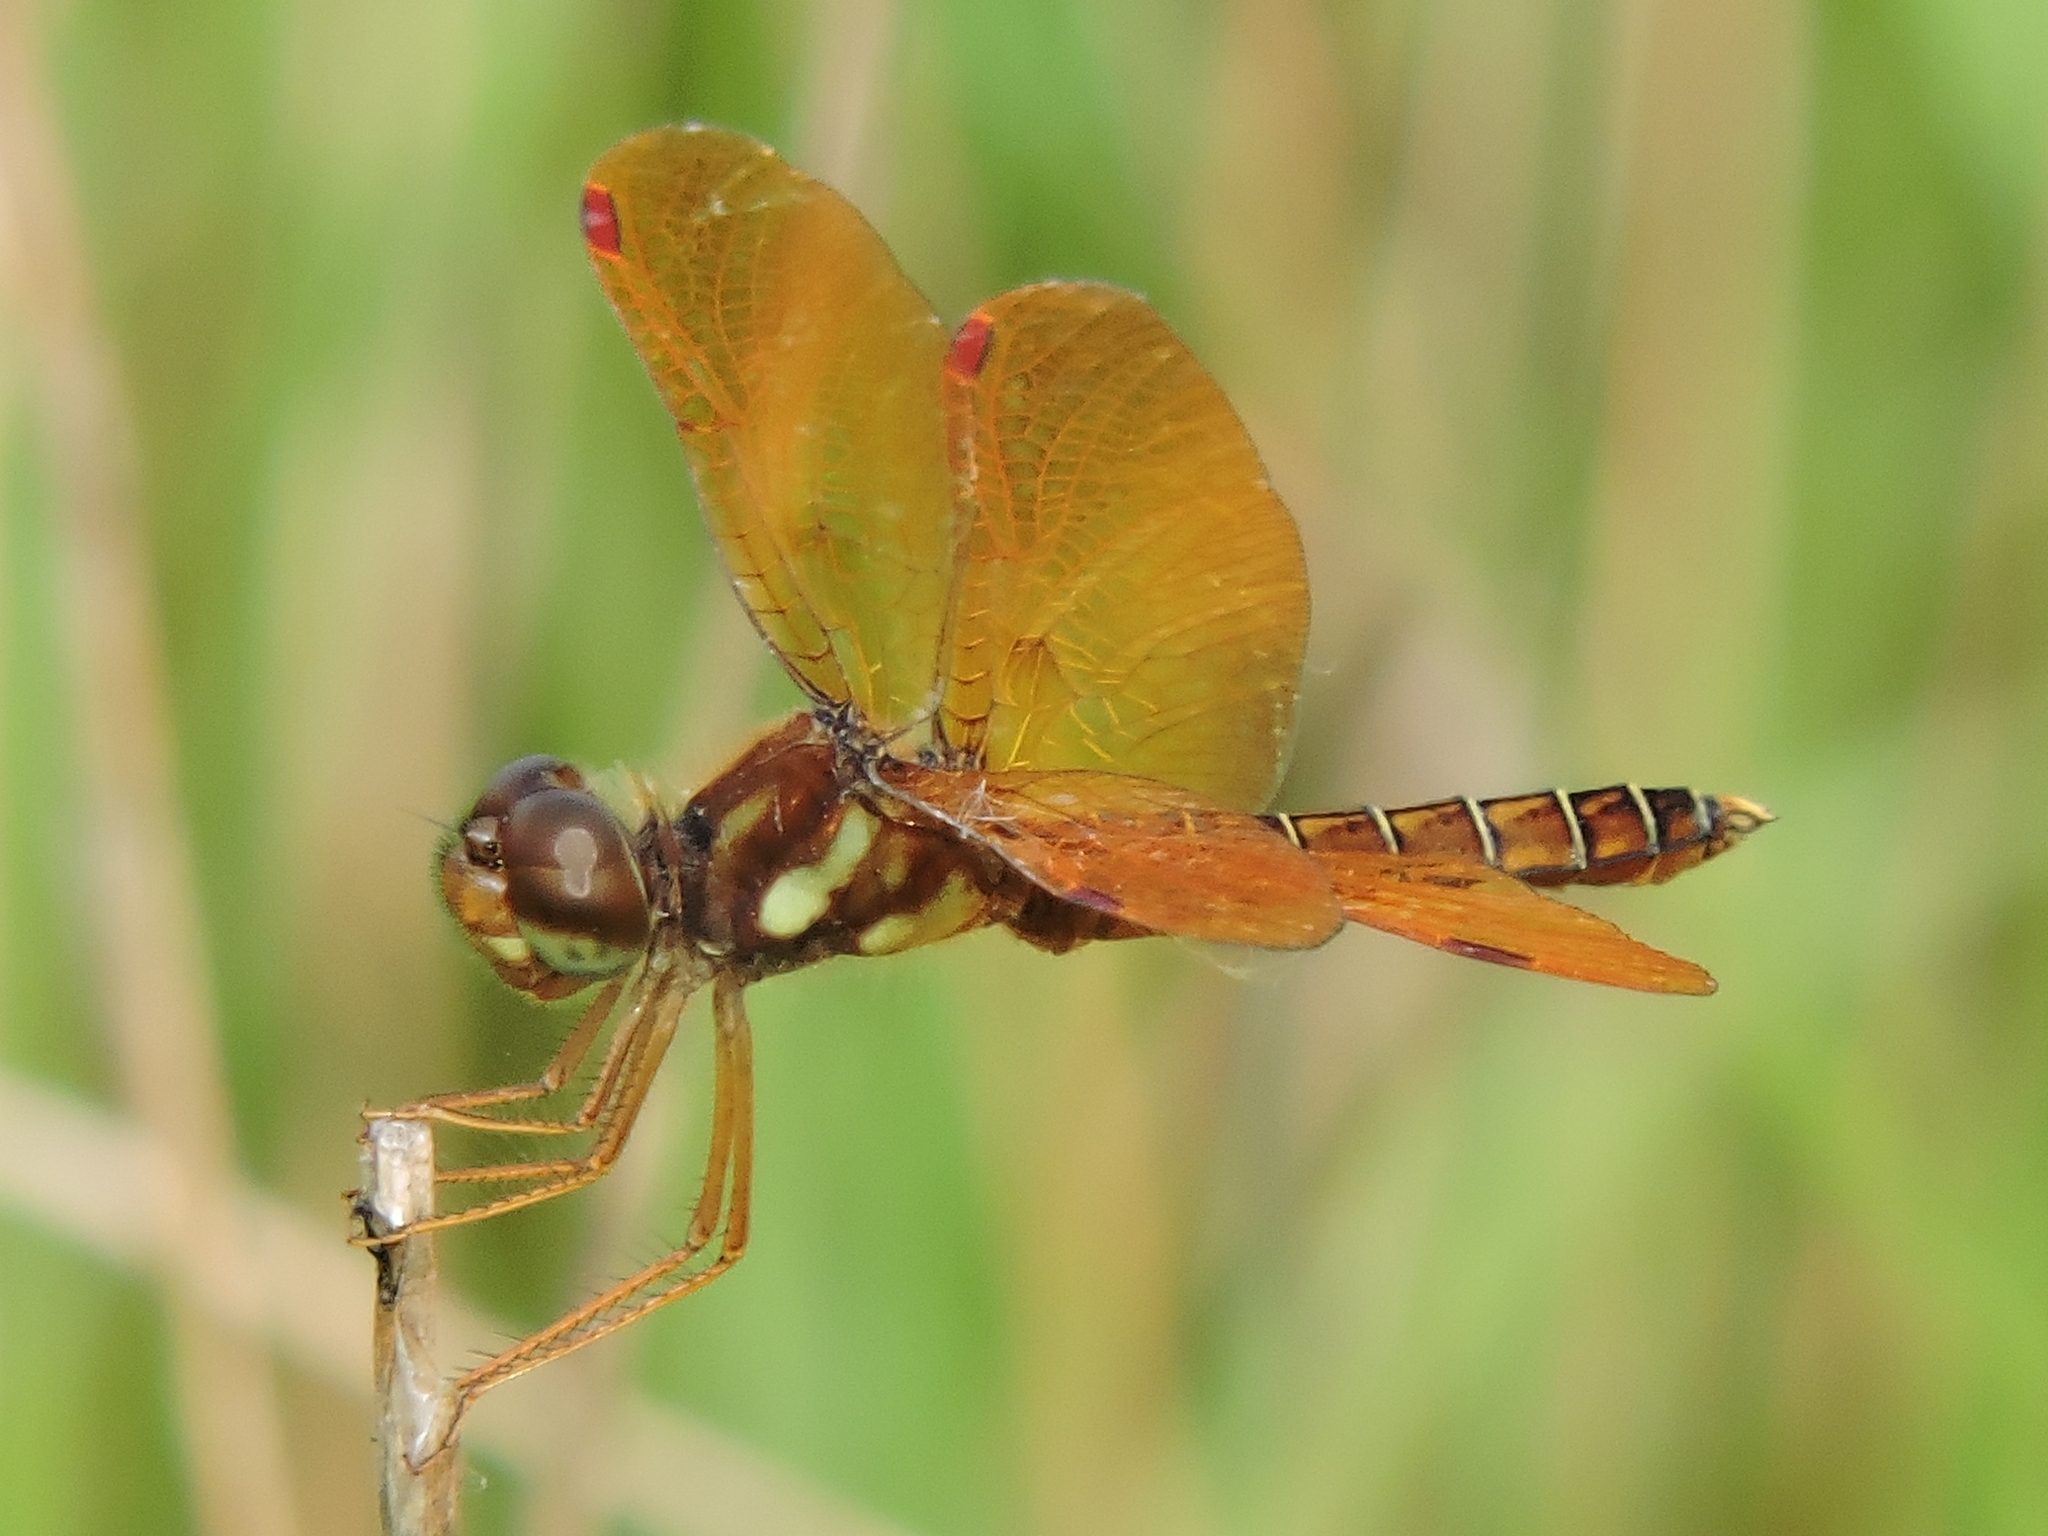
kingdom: Animalia
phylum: Arthropoda
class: Insecta
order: Odonata
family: Libellulidae
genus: Perithemis
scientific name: Perithemis tenera
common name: Eastern amberwing
